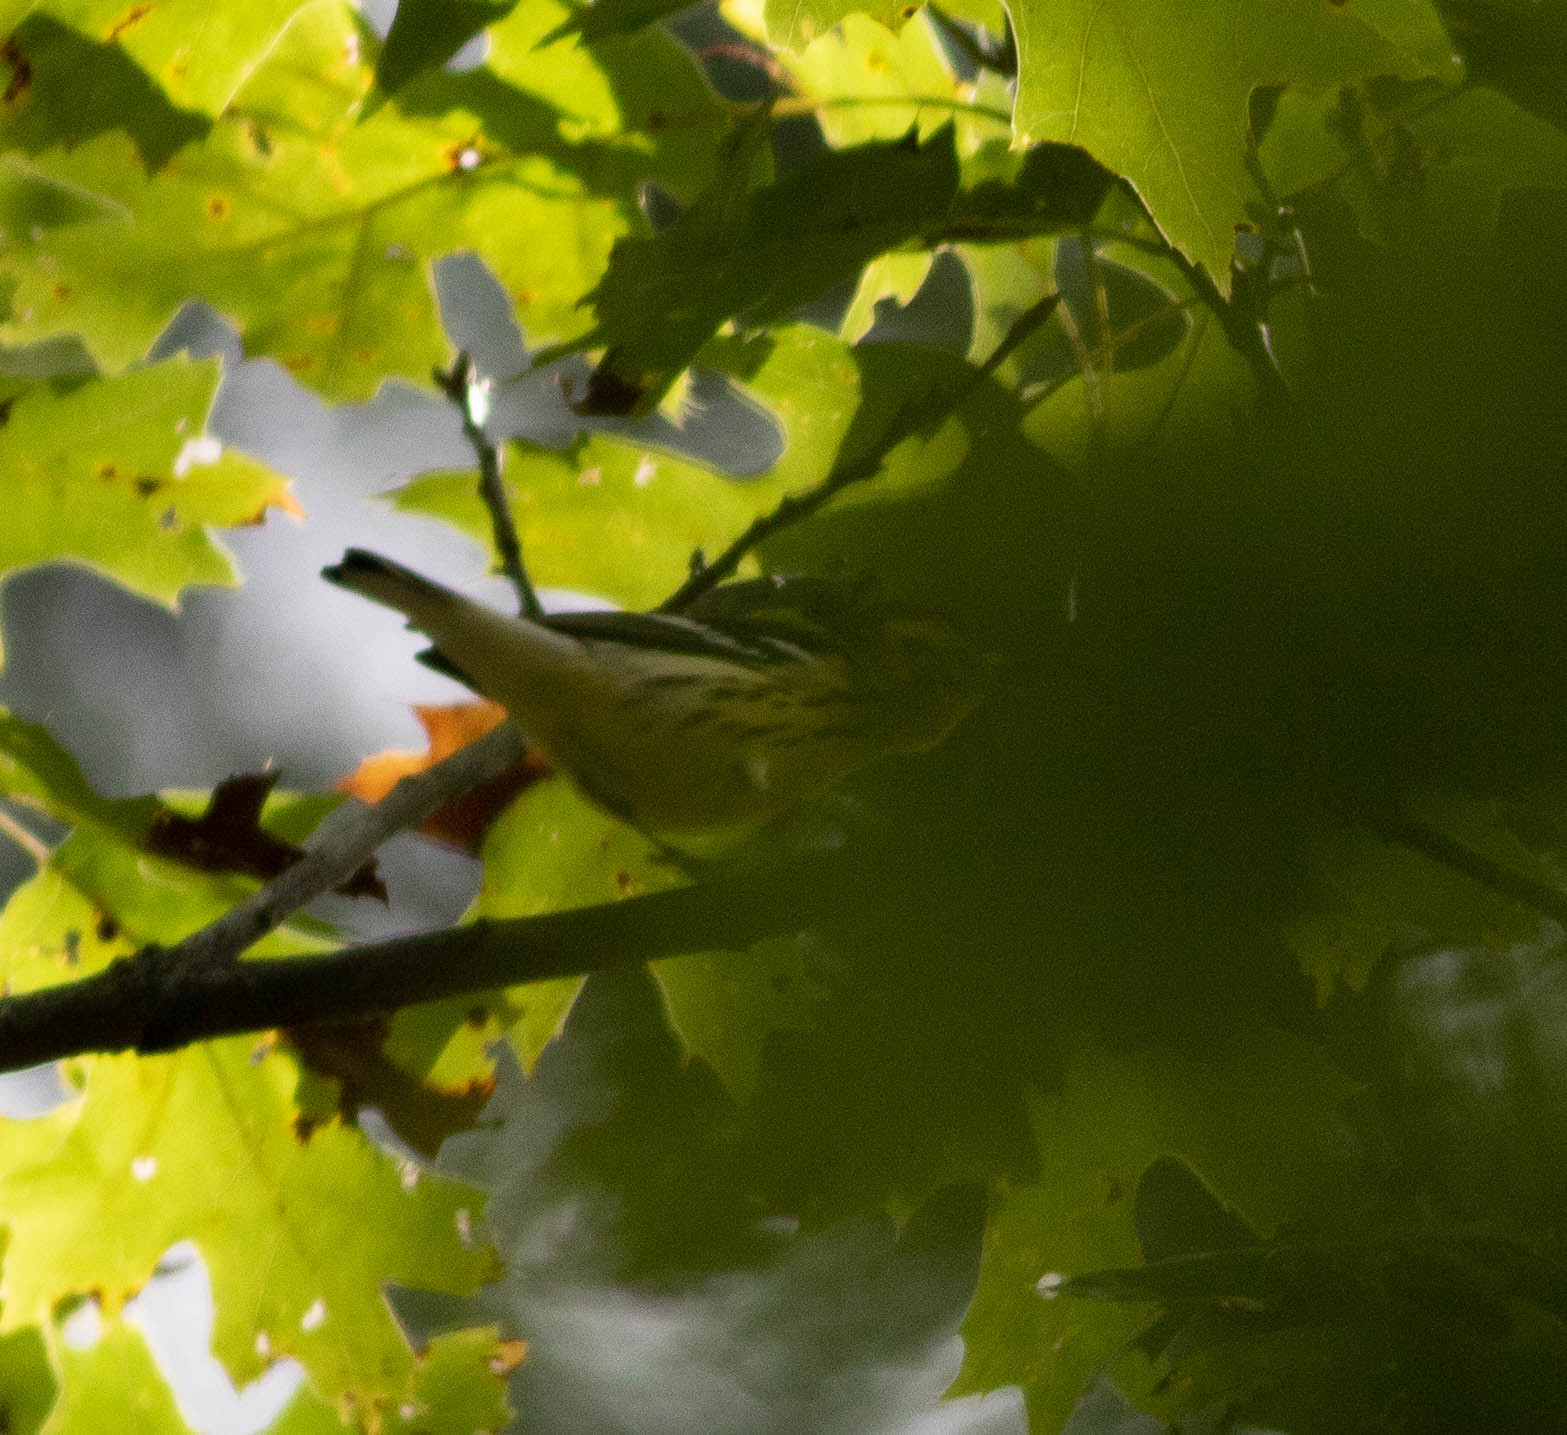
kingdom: Animalia
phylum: Chordata
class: Aves
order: Passeriformes
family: Parulidae
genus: Setophaga
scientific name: Setophaga fusca
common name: Blackburnian warbler
